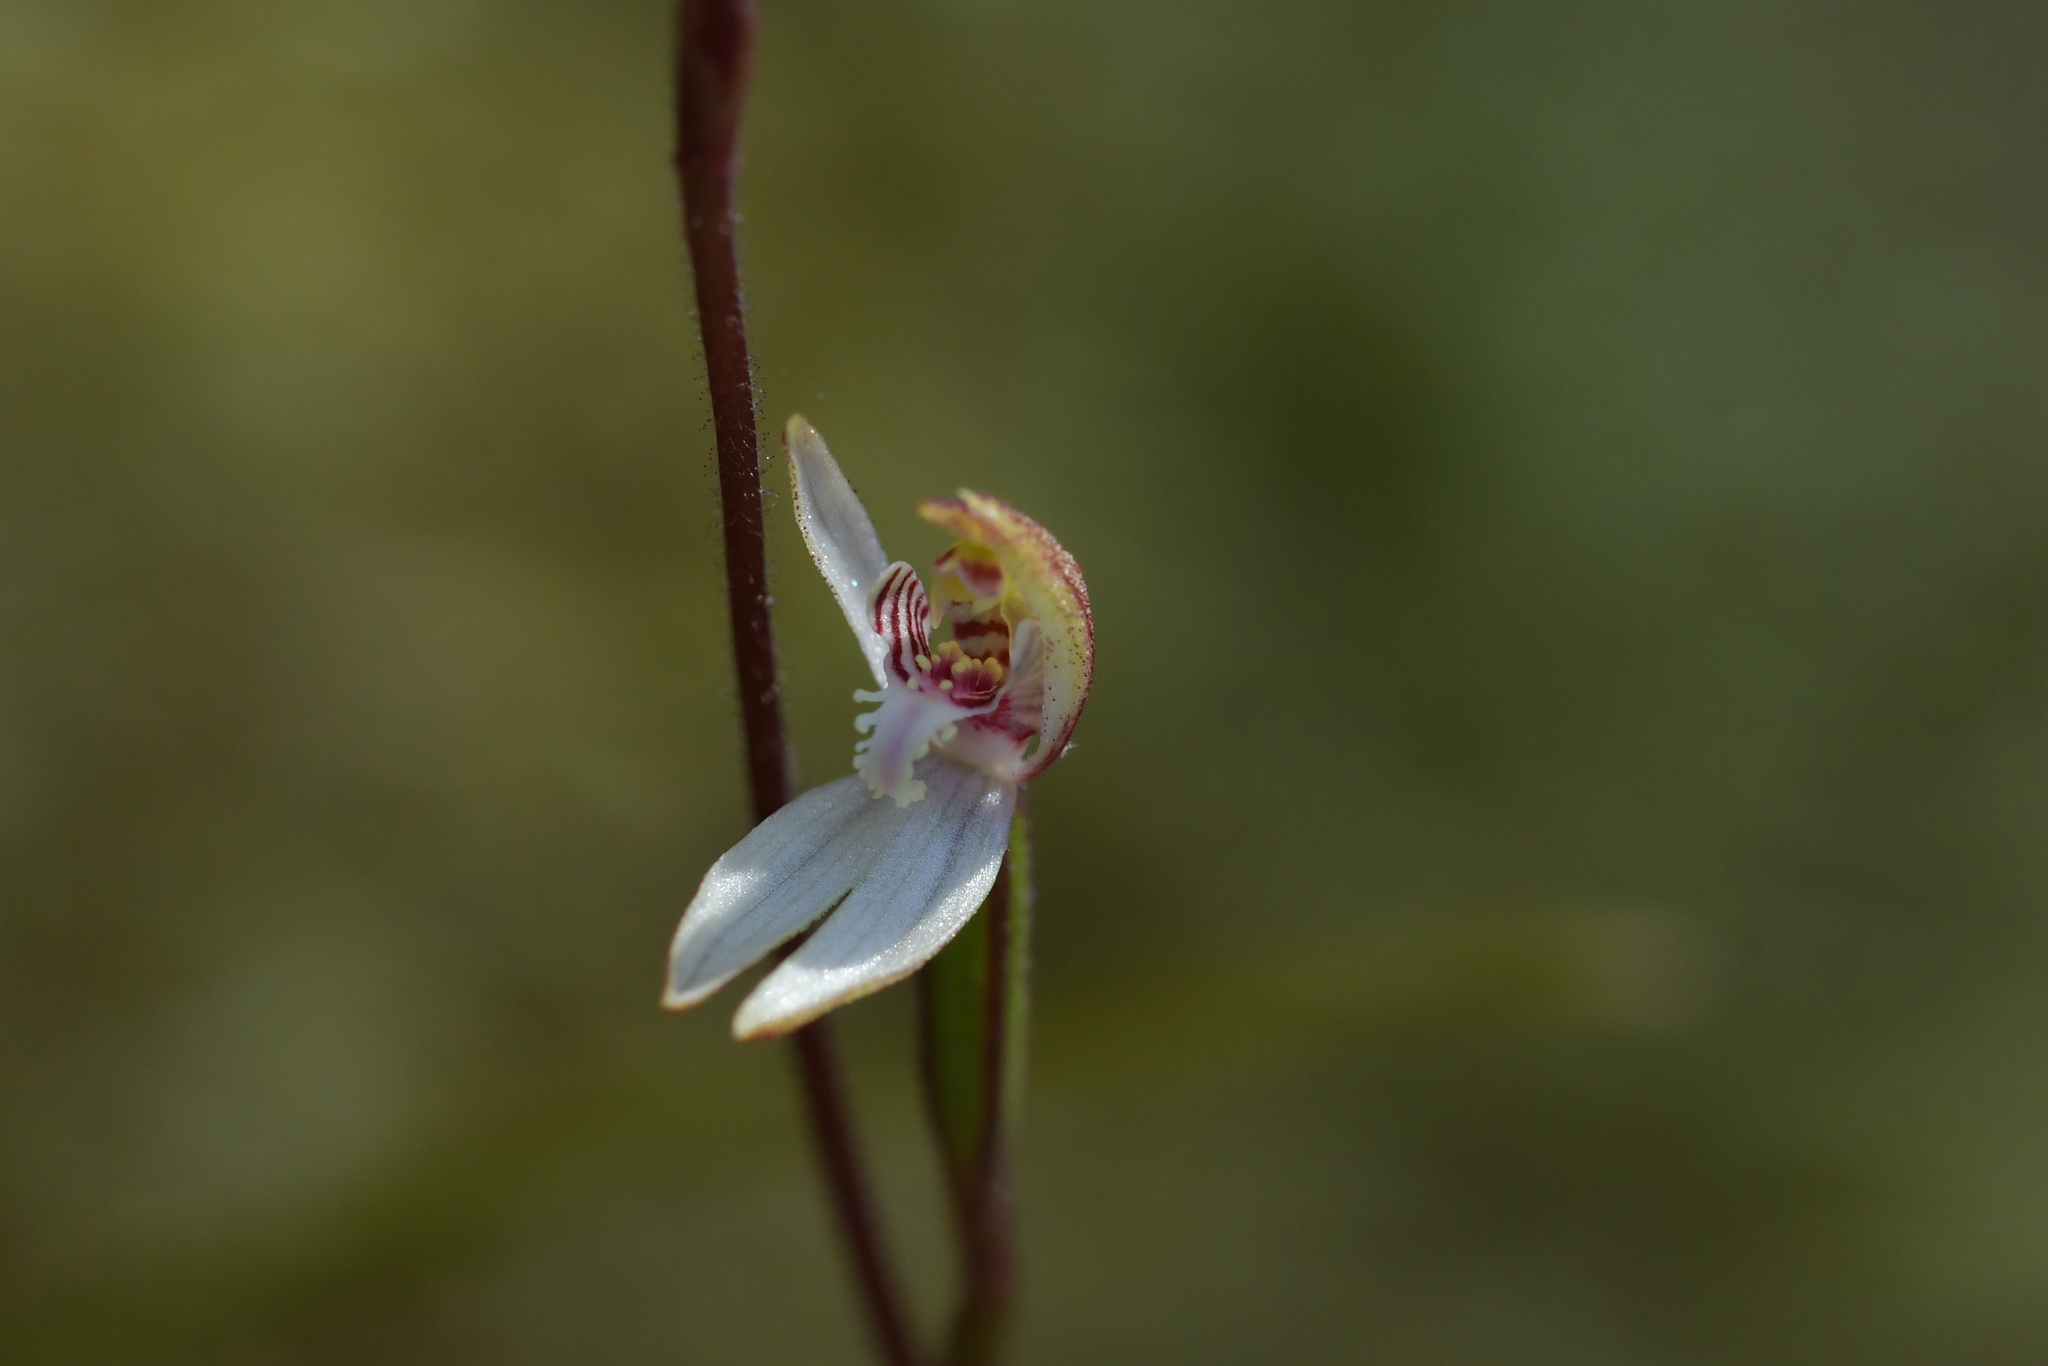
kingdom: Plantae
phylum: Tracheophyta
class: Liliopsida
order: Asparagales
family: Orchidaceae
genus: Caladenia
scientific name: Caladenia chlorostyla
